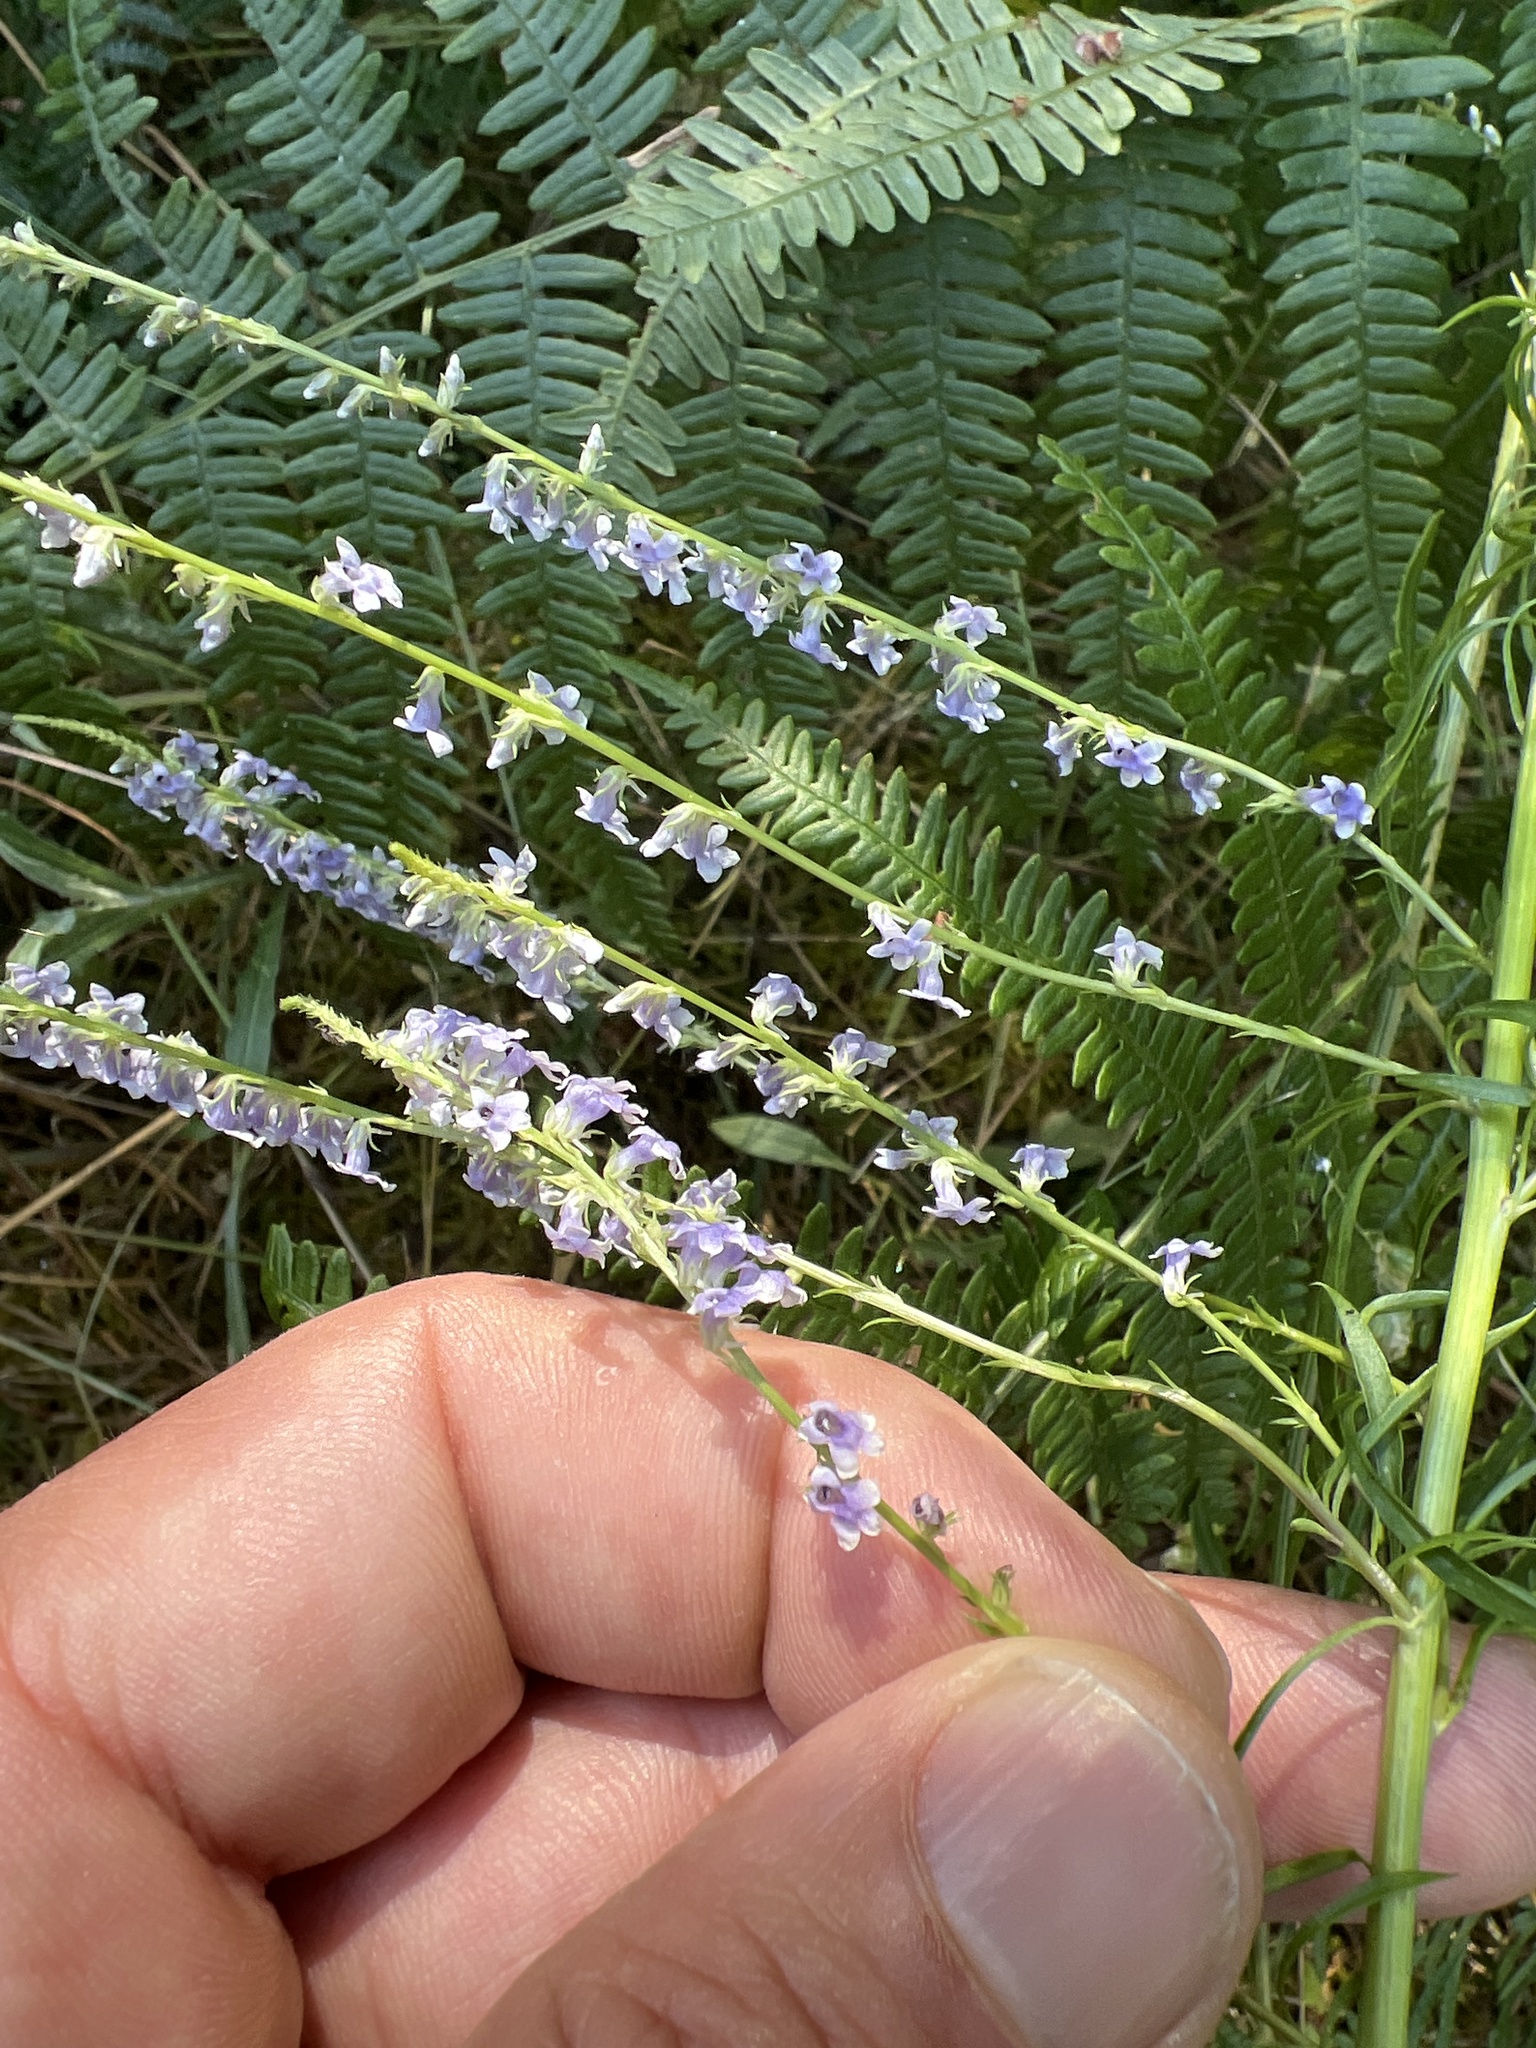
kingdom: Plantae
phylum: Tracheophyta
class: Magnoliopsida
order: Lamiales
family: Plantaginaceae
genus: Anarrhinum
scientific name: Anarrhinum bellidifolium
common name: Daisy-leaved toadflax
